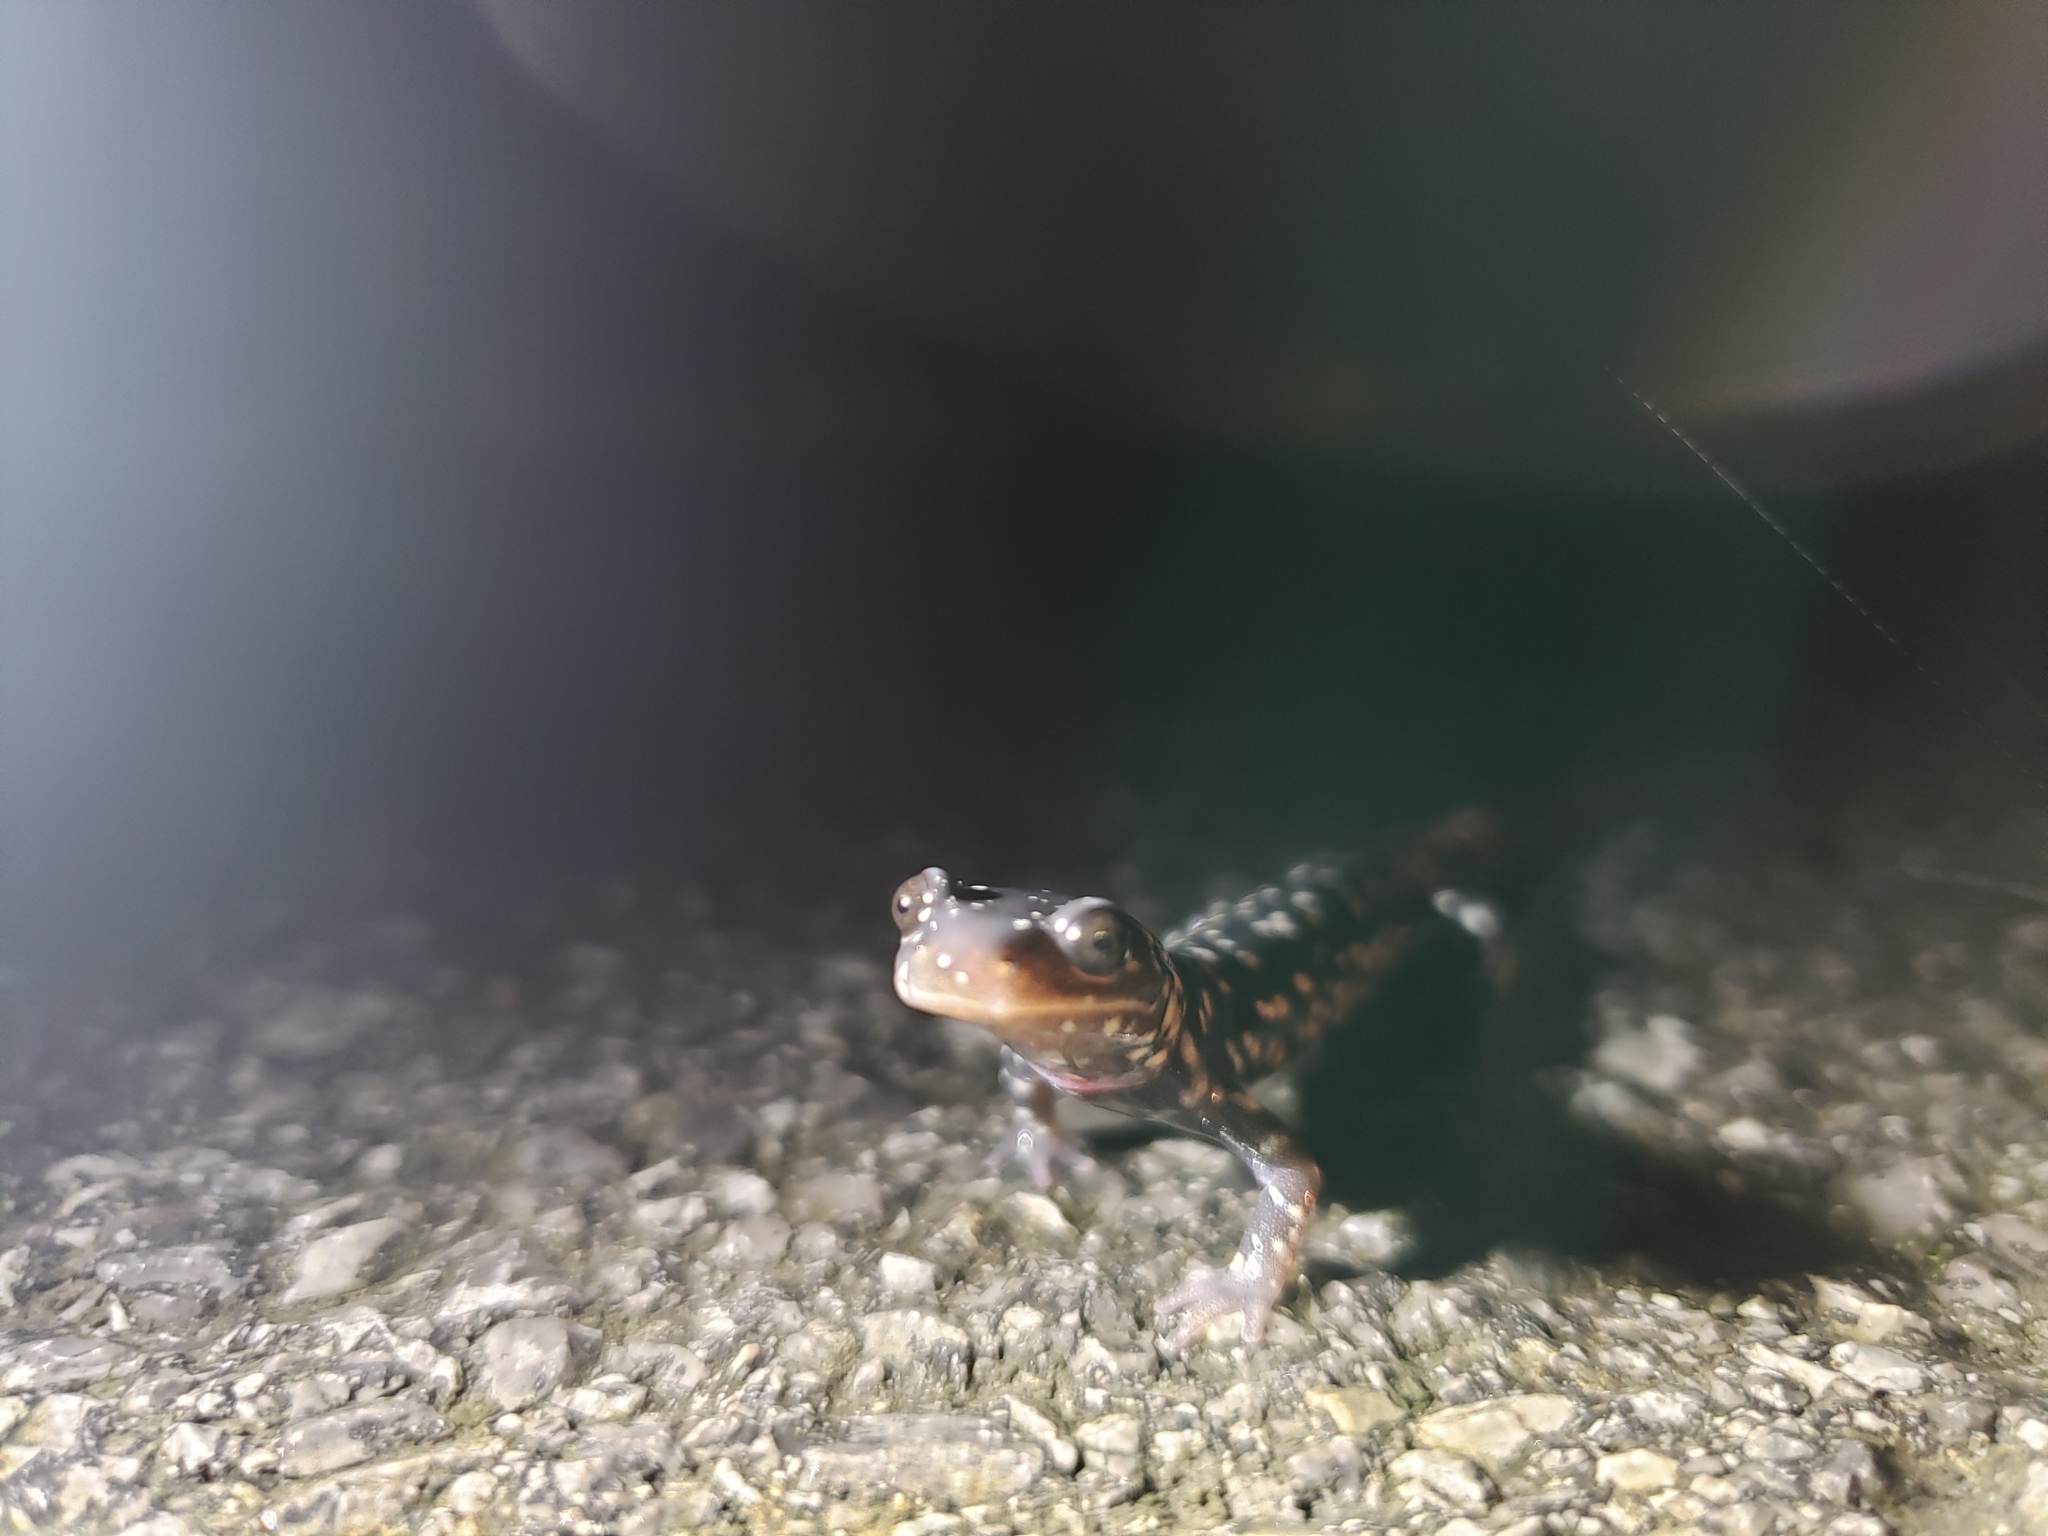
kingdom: Animalia
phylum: Chordata
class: Amphibia
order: Caudata
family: Plethodontidae
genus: Plethodon
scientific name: Plethodon glutinosus
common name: Northern slimy salamander
